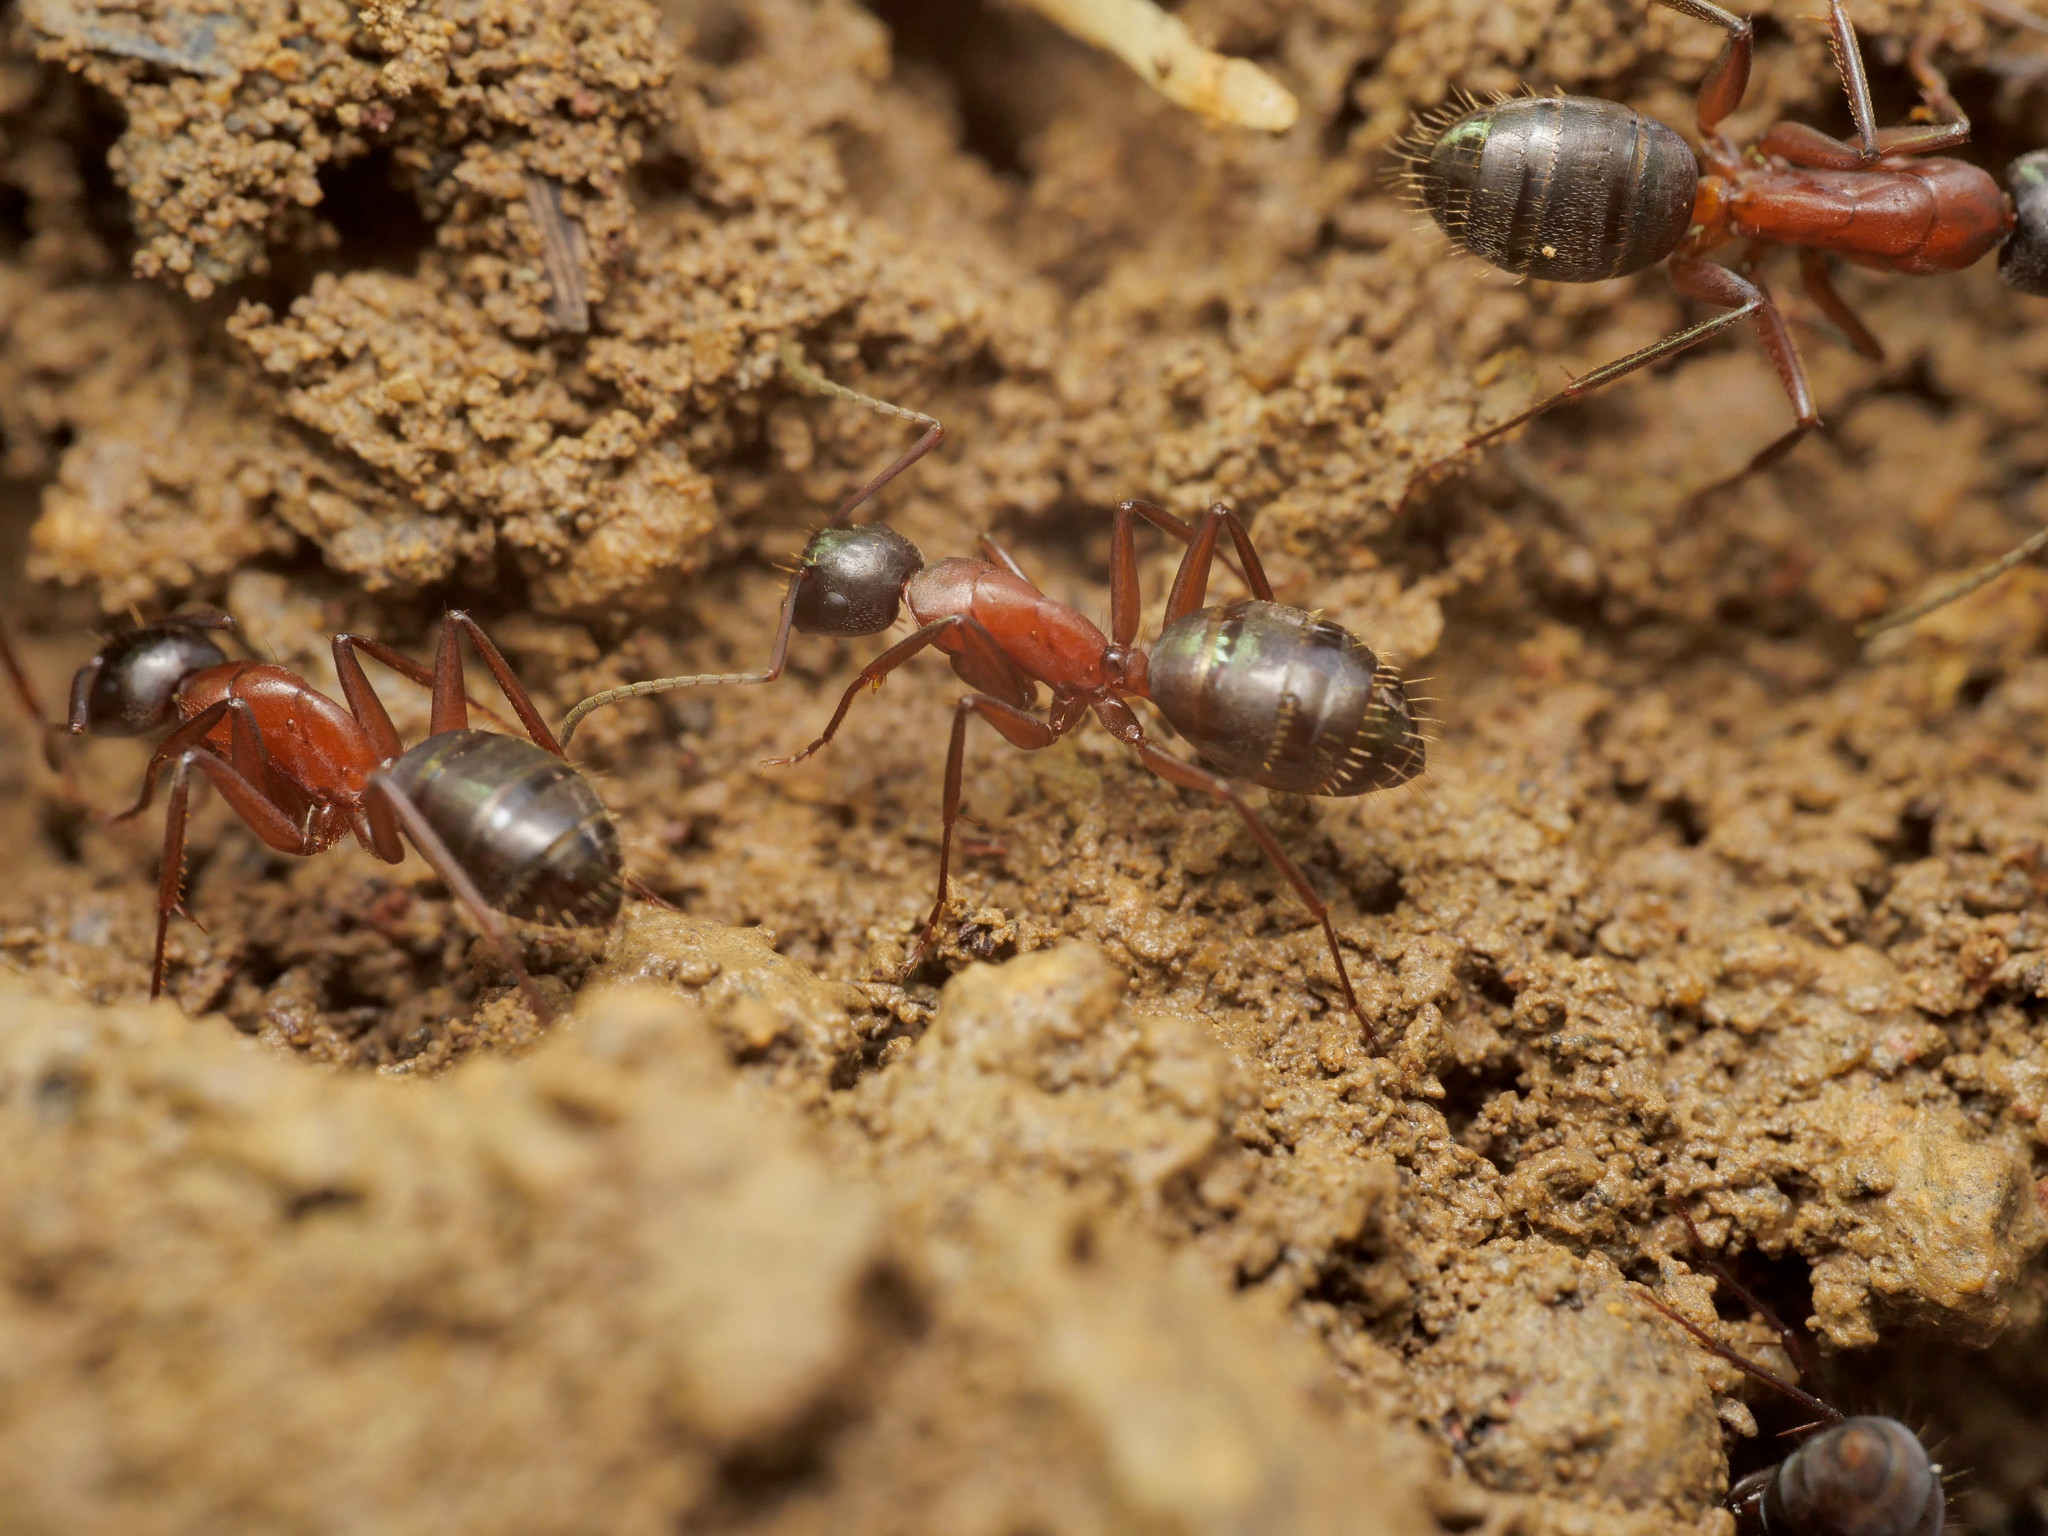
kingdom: Animalia
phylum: Arthropoda
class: Insecta
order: Hymenoptera
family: Formicidae
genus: Camponotus
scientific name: Camponotus ligniperdus
